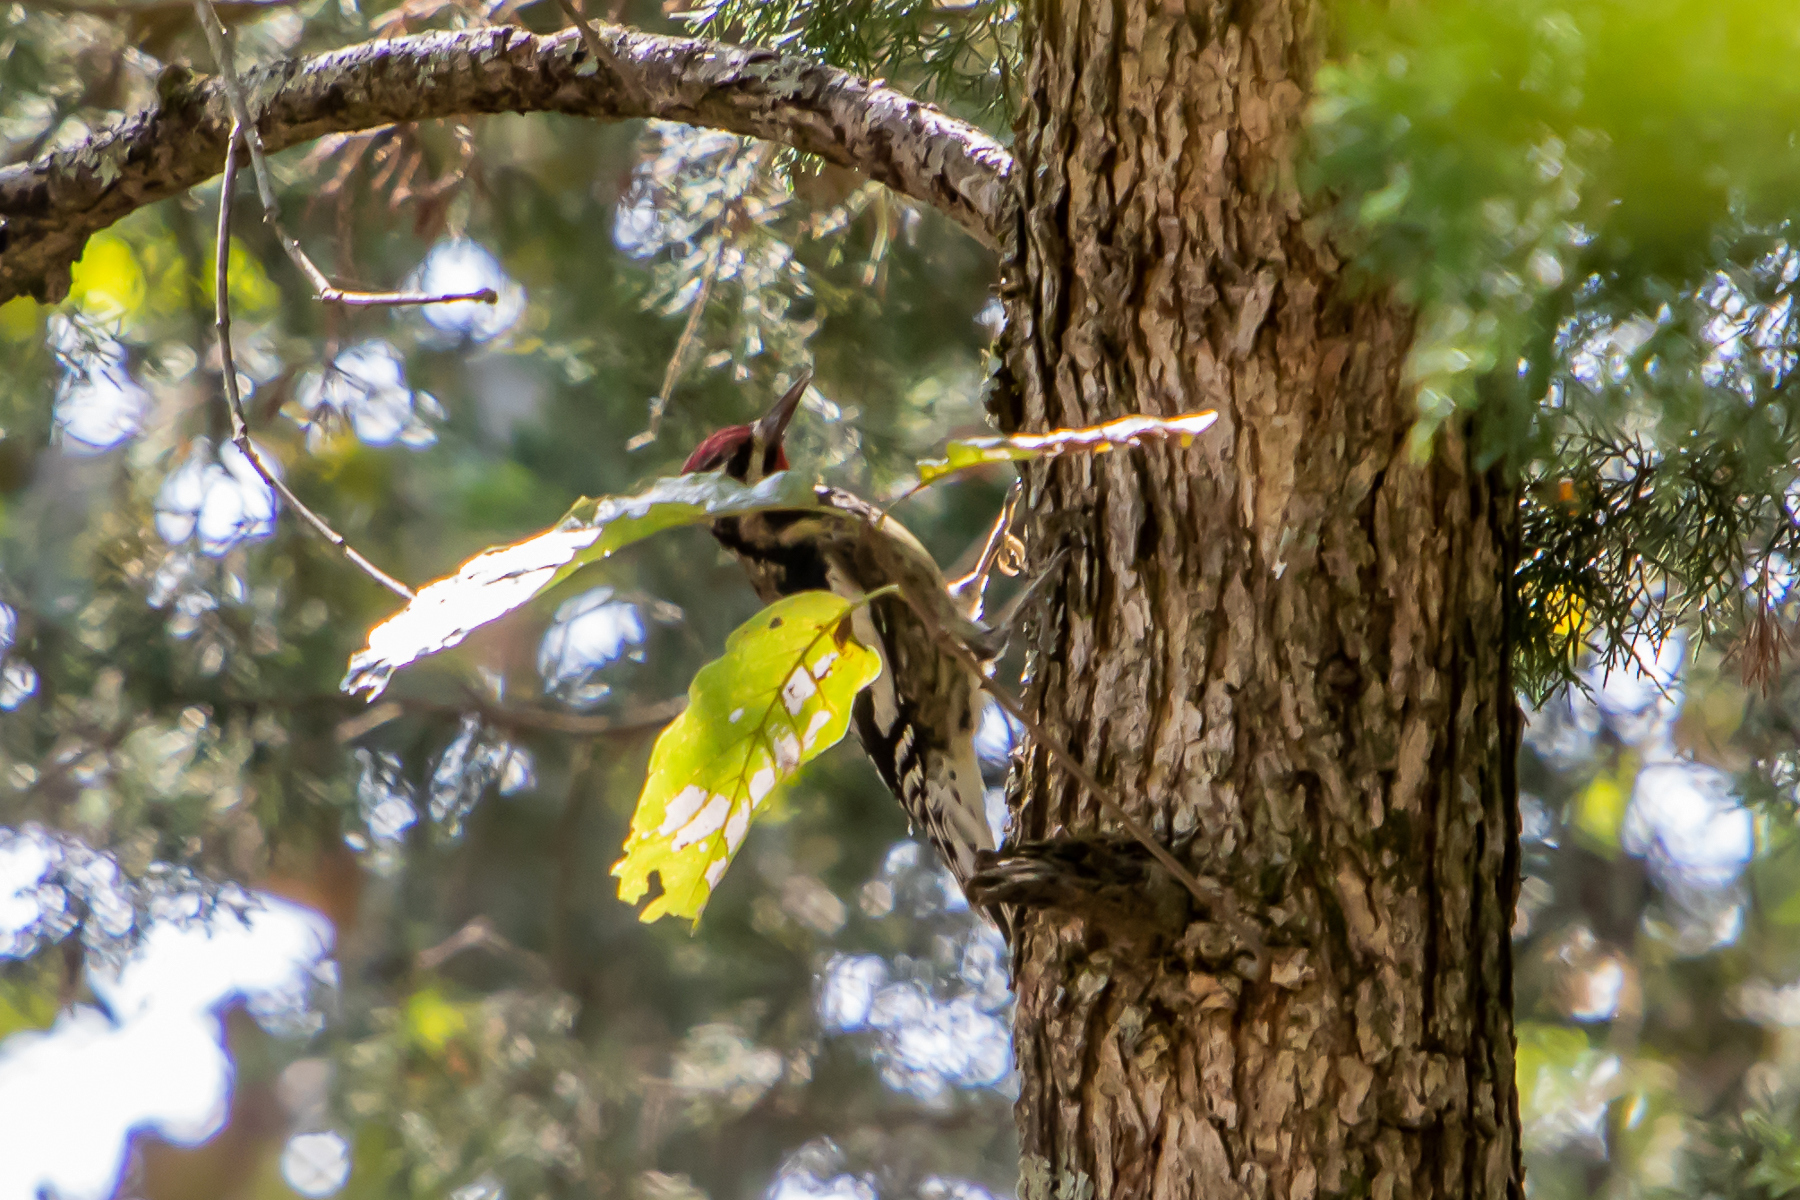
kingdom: Animalia
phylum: Chordata
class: Aves
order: Piciformes
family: Picidae
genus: Sphyrapicus
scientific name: Sphyrapicus varius
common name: Yellow-bellied sapsucker
